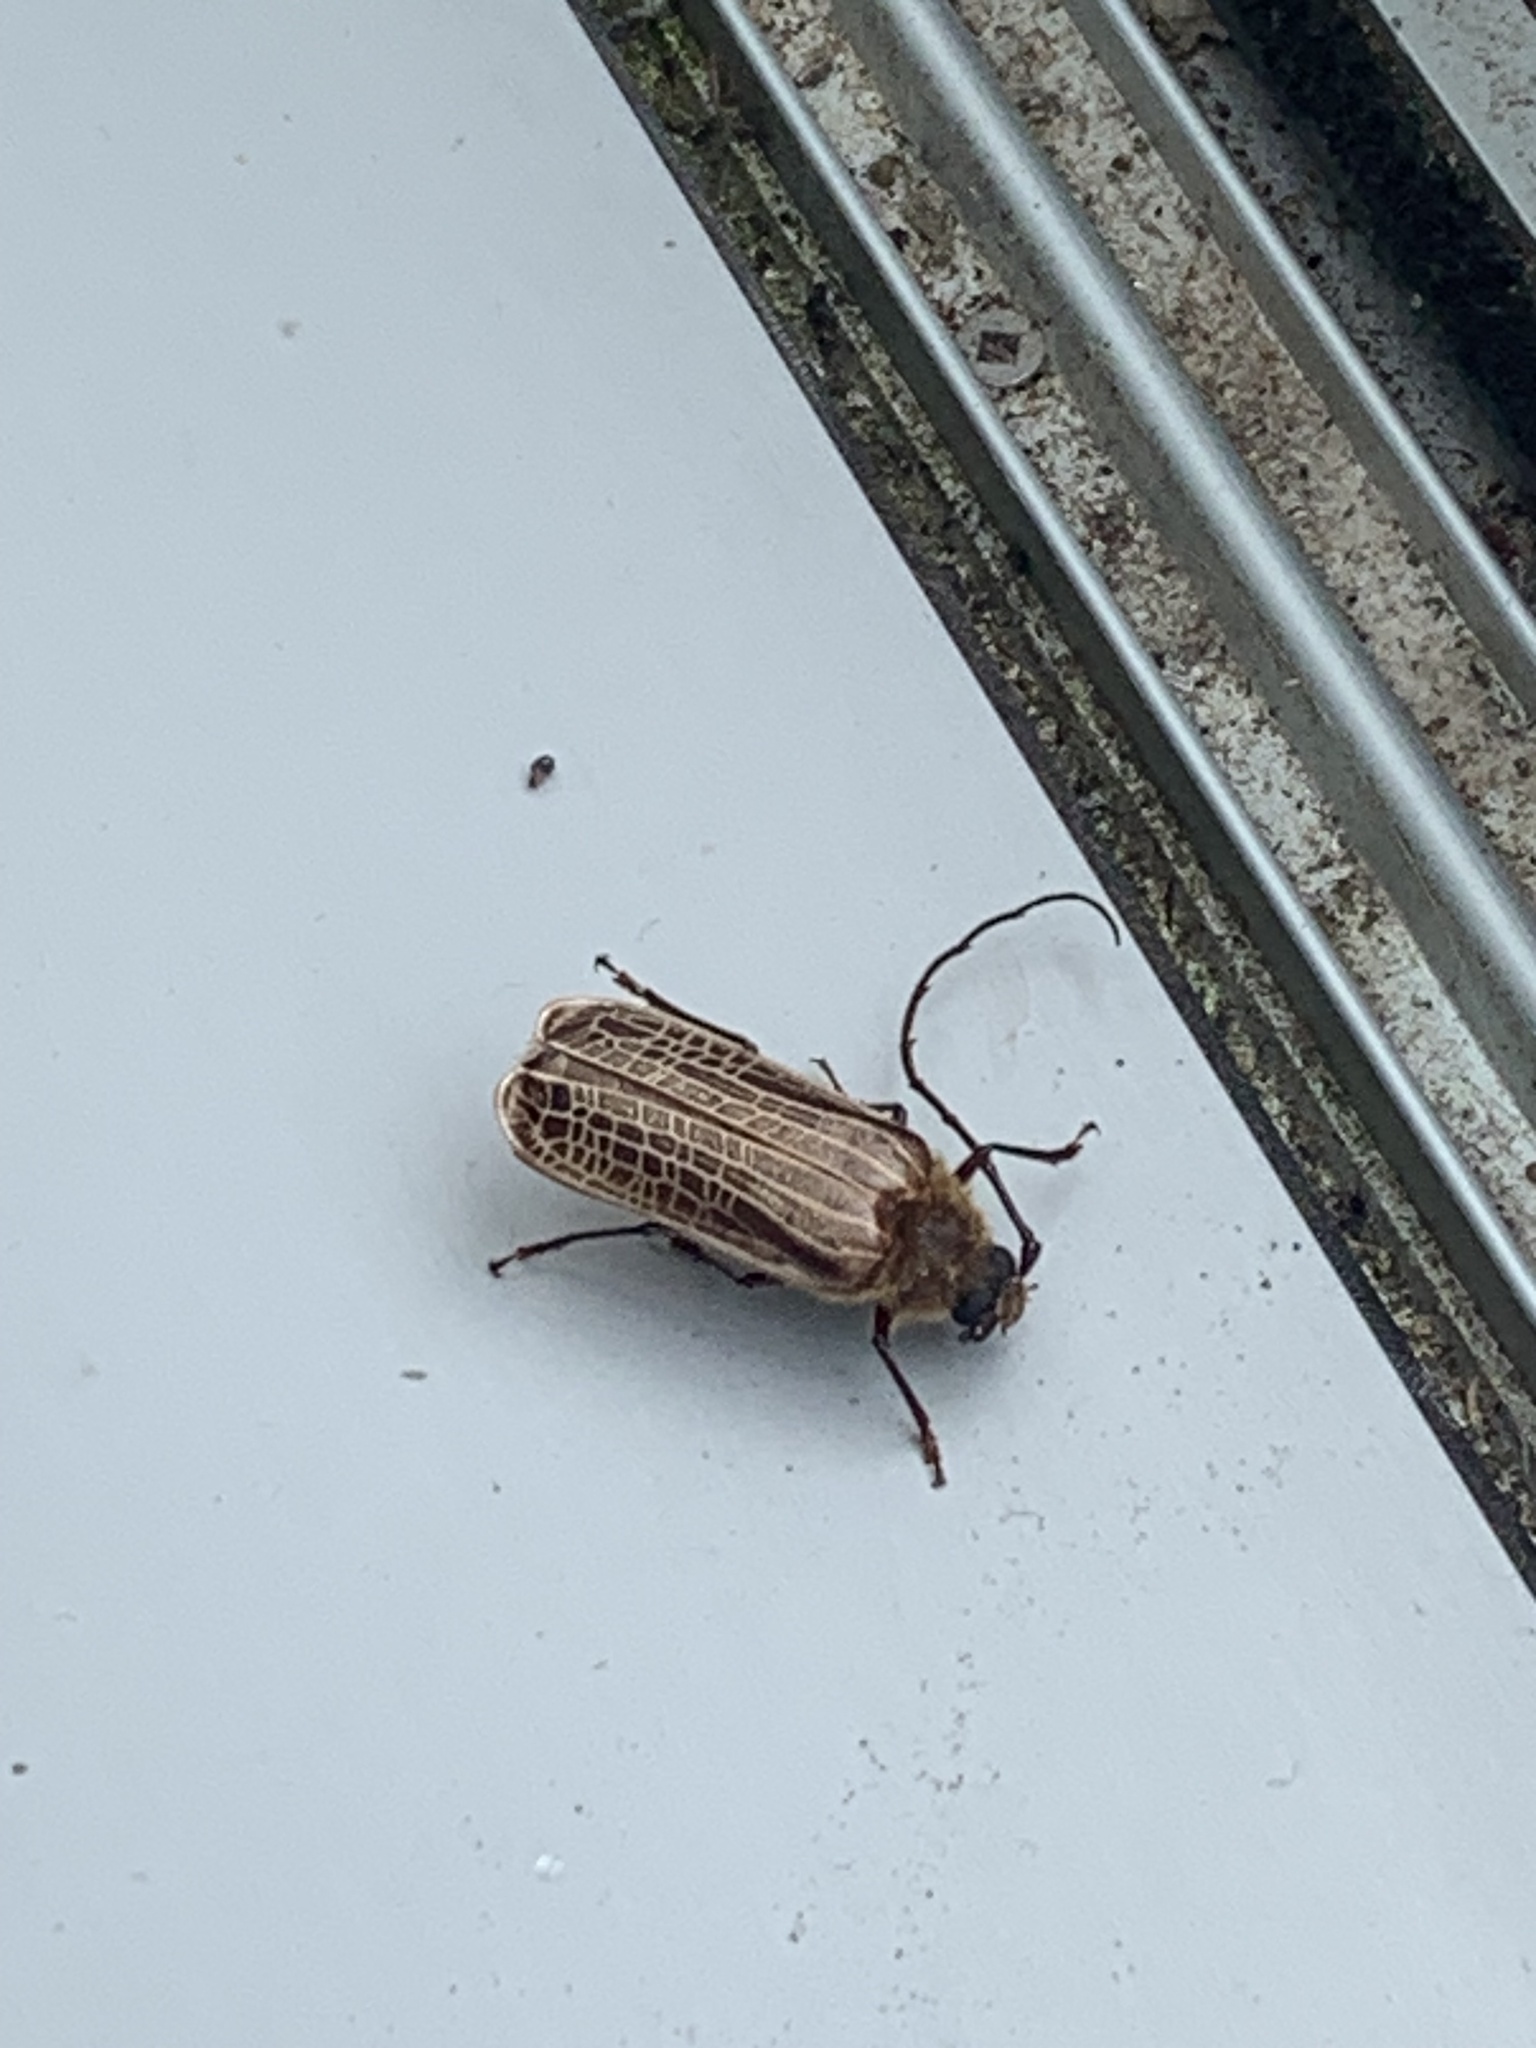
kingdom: Animalia
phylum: Arthropoda
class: Insecta
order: Coleoptera
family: Cerambycidae
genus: Prionoplus
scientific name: Prionoplus reticularis
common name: Huhu beetle
